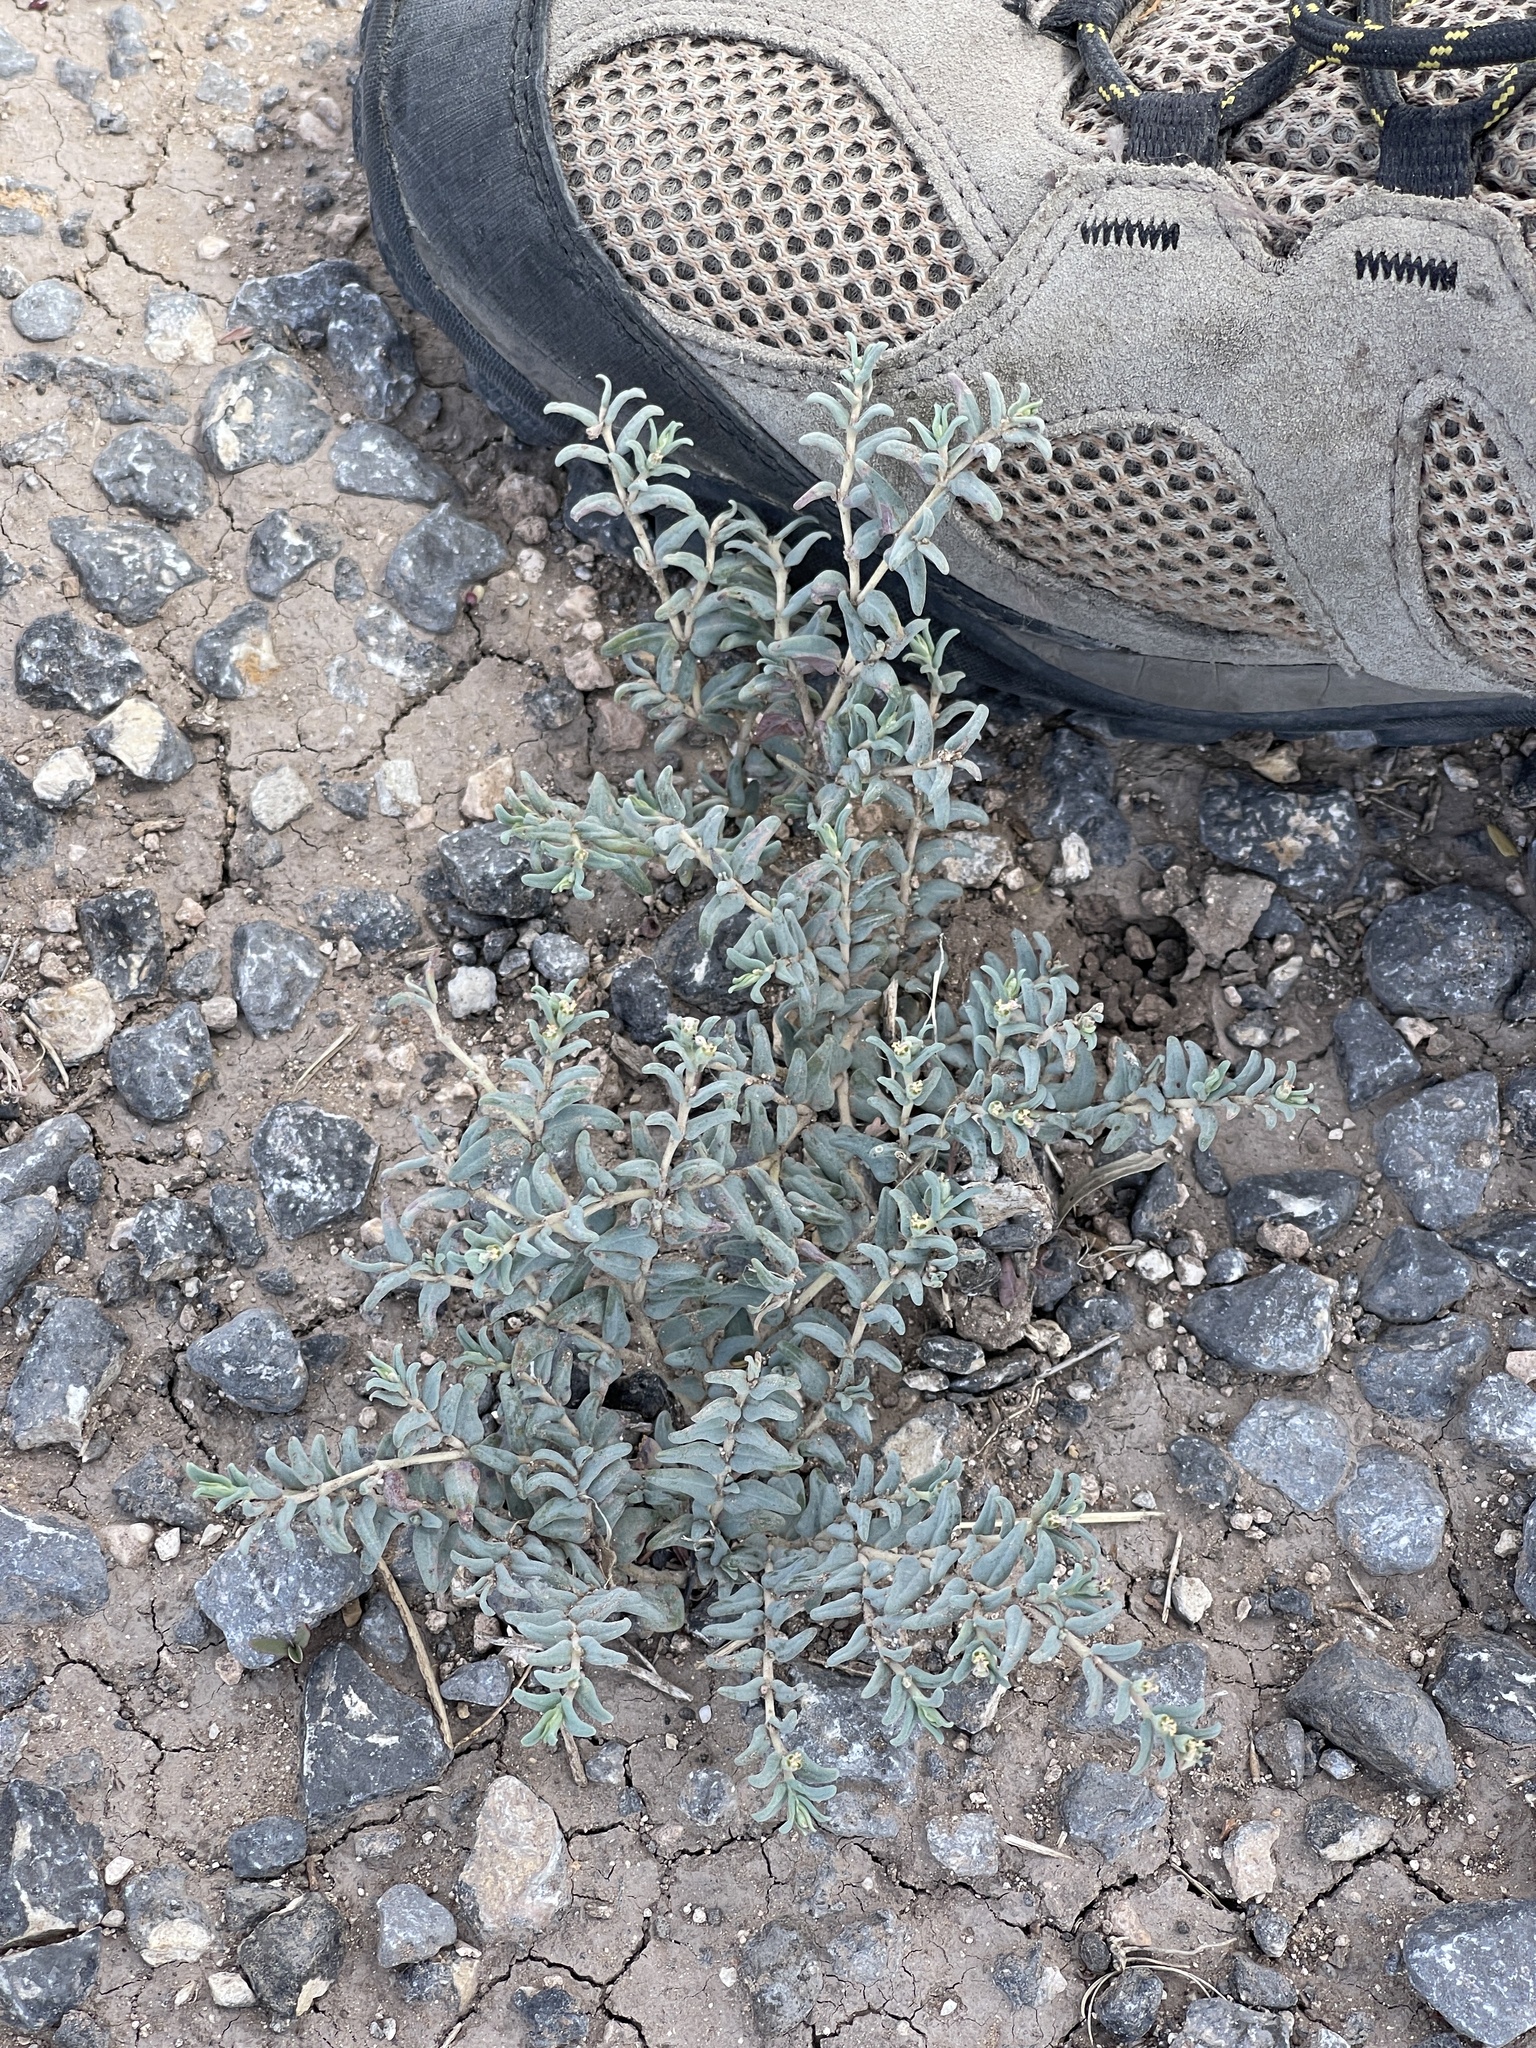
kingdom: Plantae
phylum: Tracheophyta
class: Magnoliopsida
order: Malpighiales
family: Euphorbiaceae
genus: Euphorbia
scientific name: Euphorbia lata
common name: Hoary euphorbia
